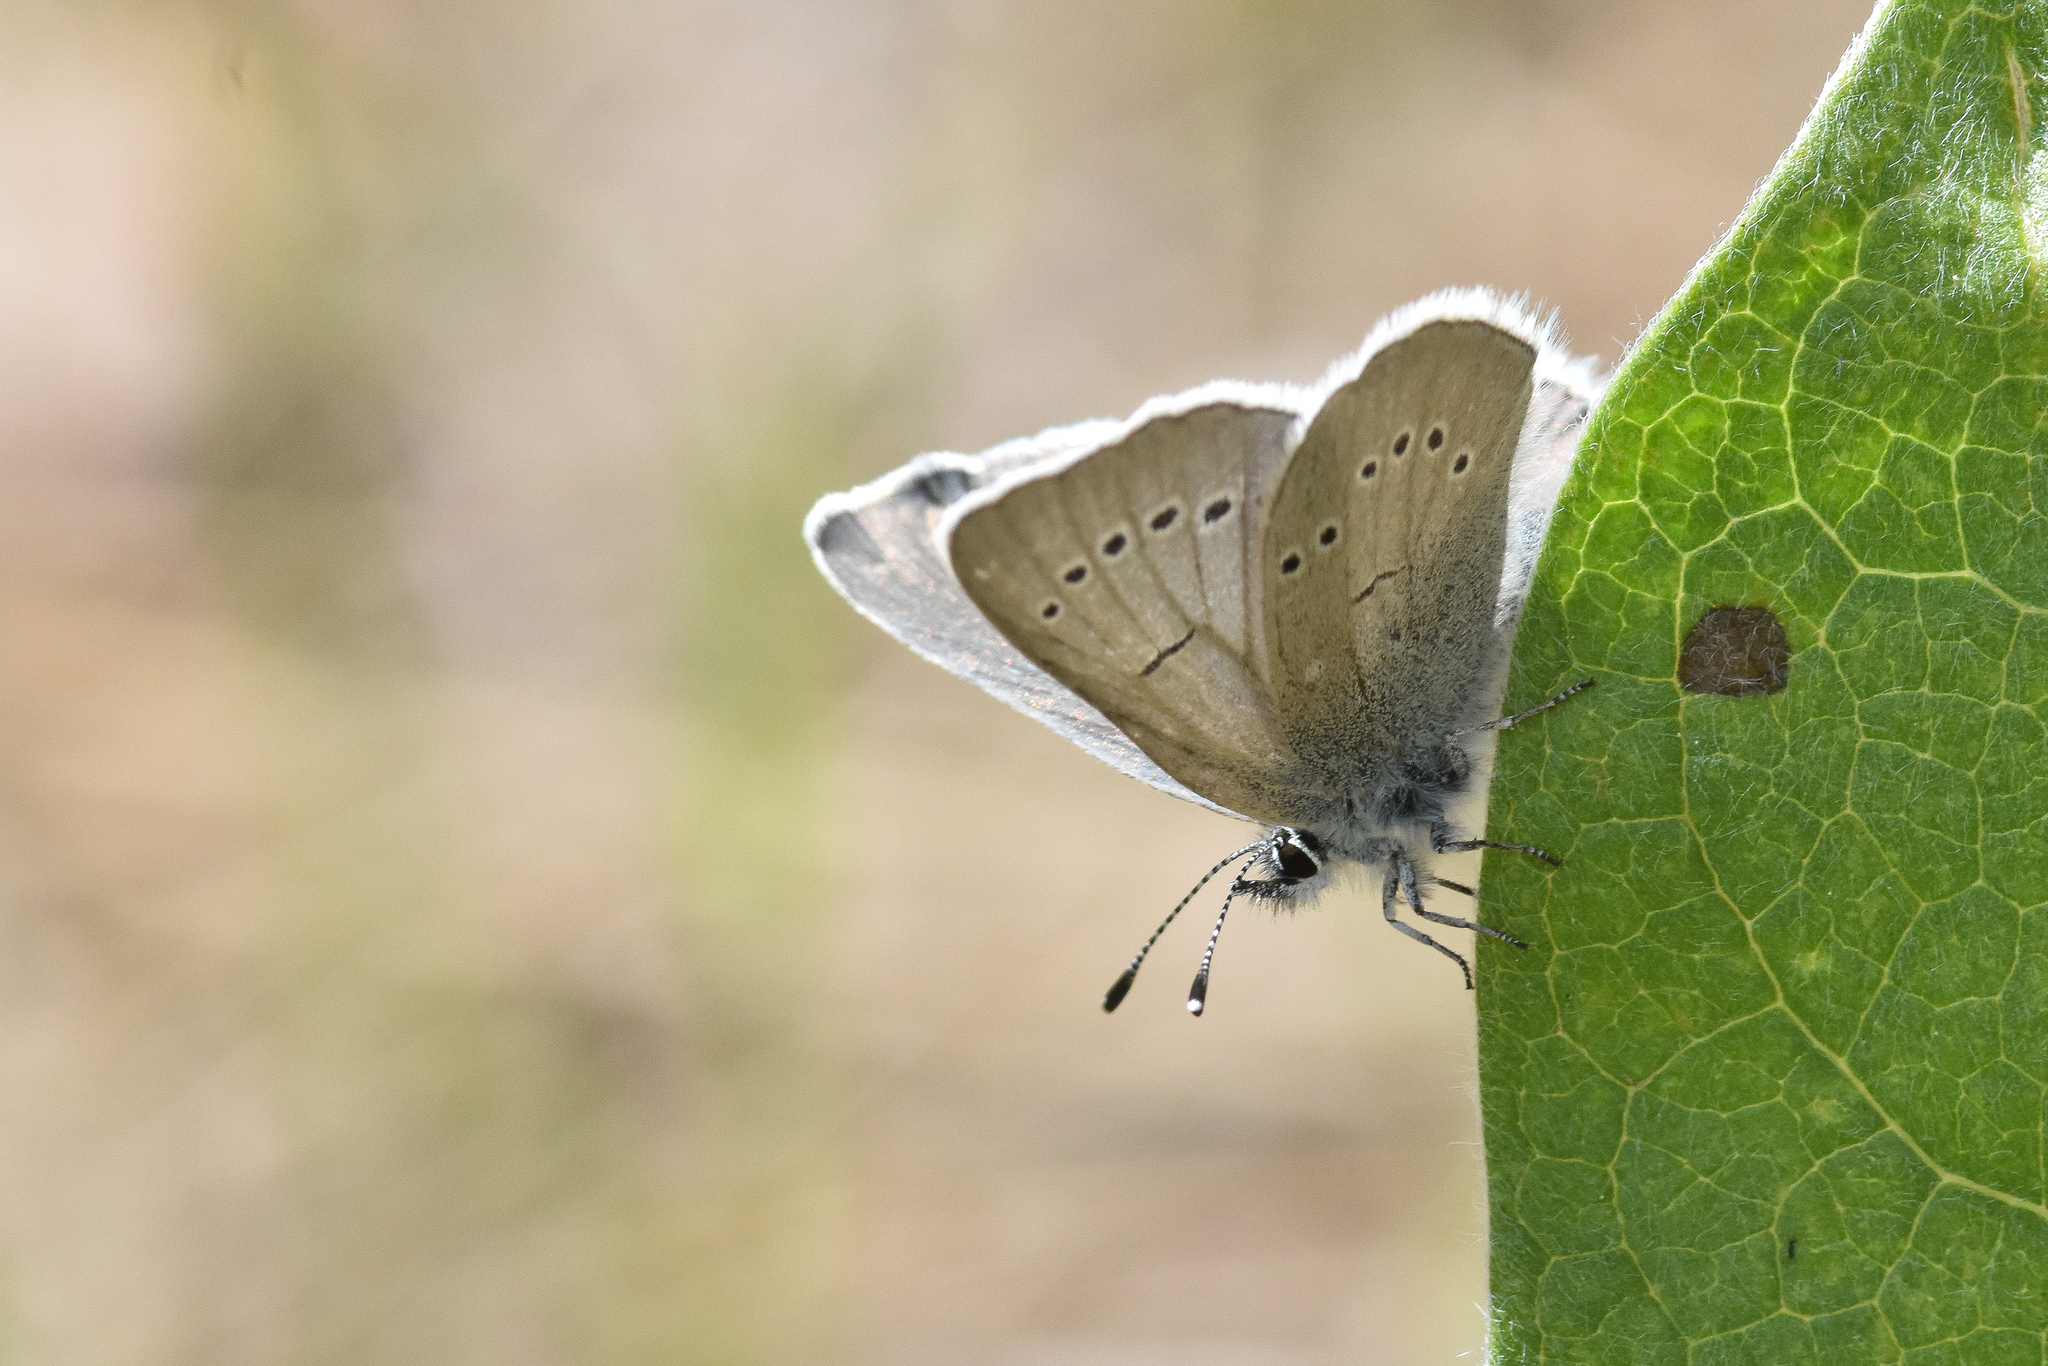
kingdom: Animalia
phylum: Arthropoda
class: Insecta
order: Lepidoptera
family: Lycaenidae
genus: Glaucopsyche
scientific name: Glaucopsyche lygdamus
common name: Silvery blue
